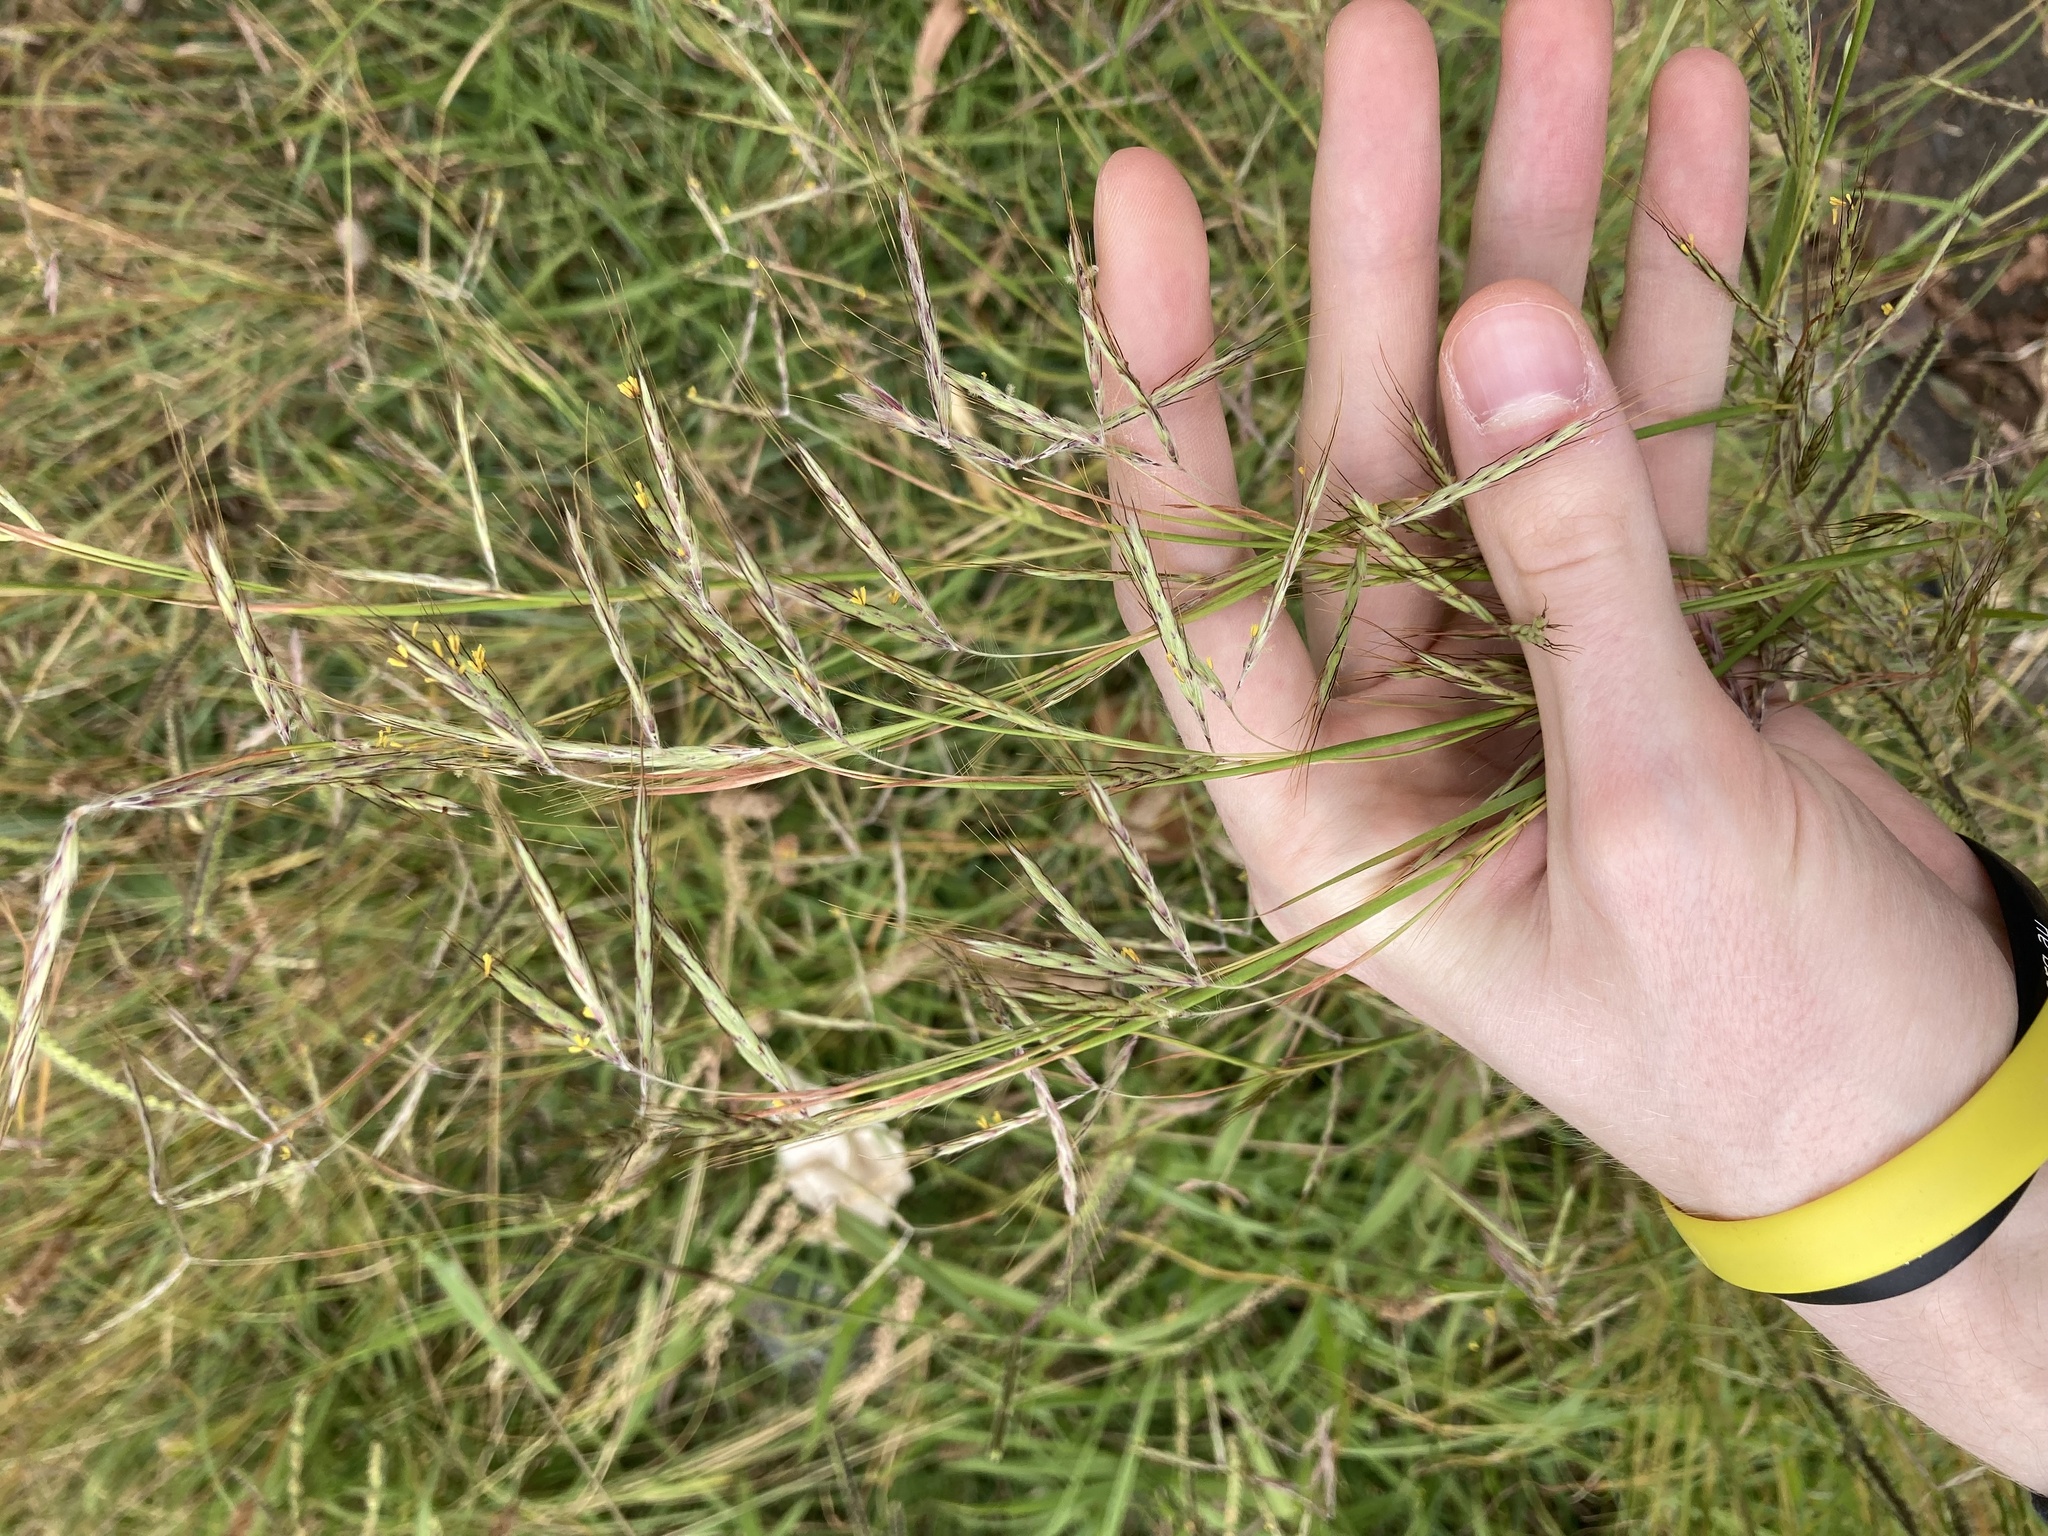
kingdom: Plantae
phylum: Tracheophyta
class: Liliopsida
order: Poales
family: Poaceae
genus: Hyparrhenia
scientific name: Hyparrhenia hirta
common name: Thatching grass
